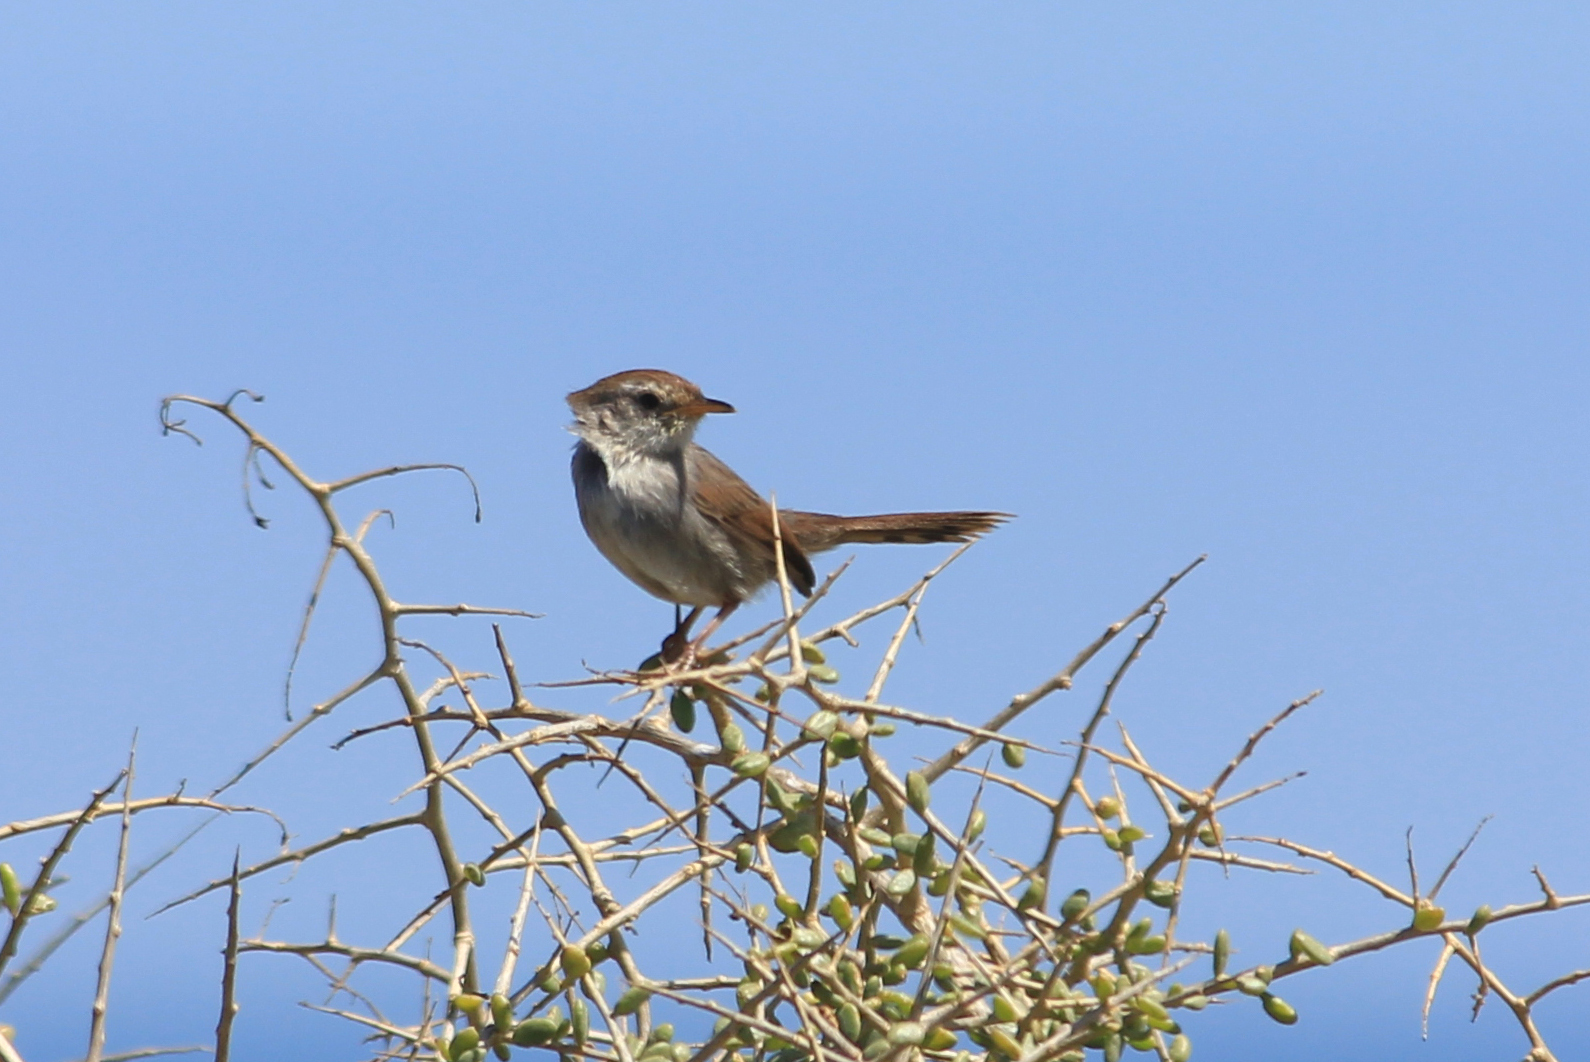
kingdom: Animalia
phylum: Chordata
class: Aves
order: Passeriformes
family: Cisticolidae
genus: Cisticola
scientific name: Cisticola subruficapilla
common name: Grey-backed cisticola
